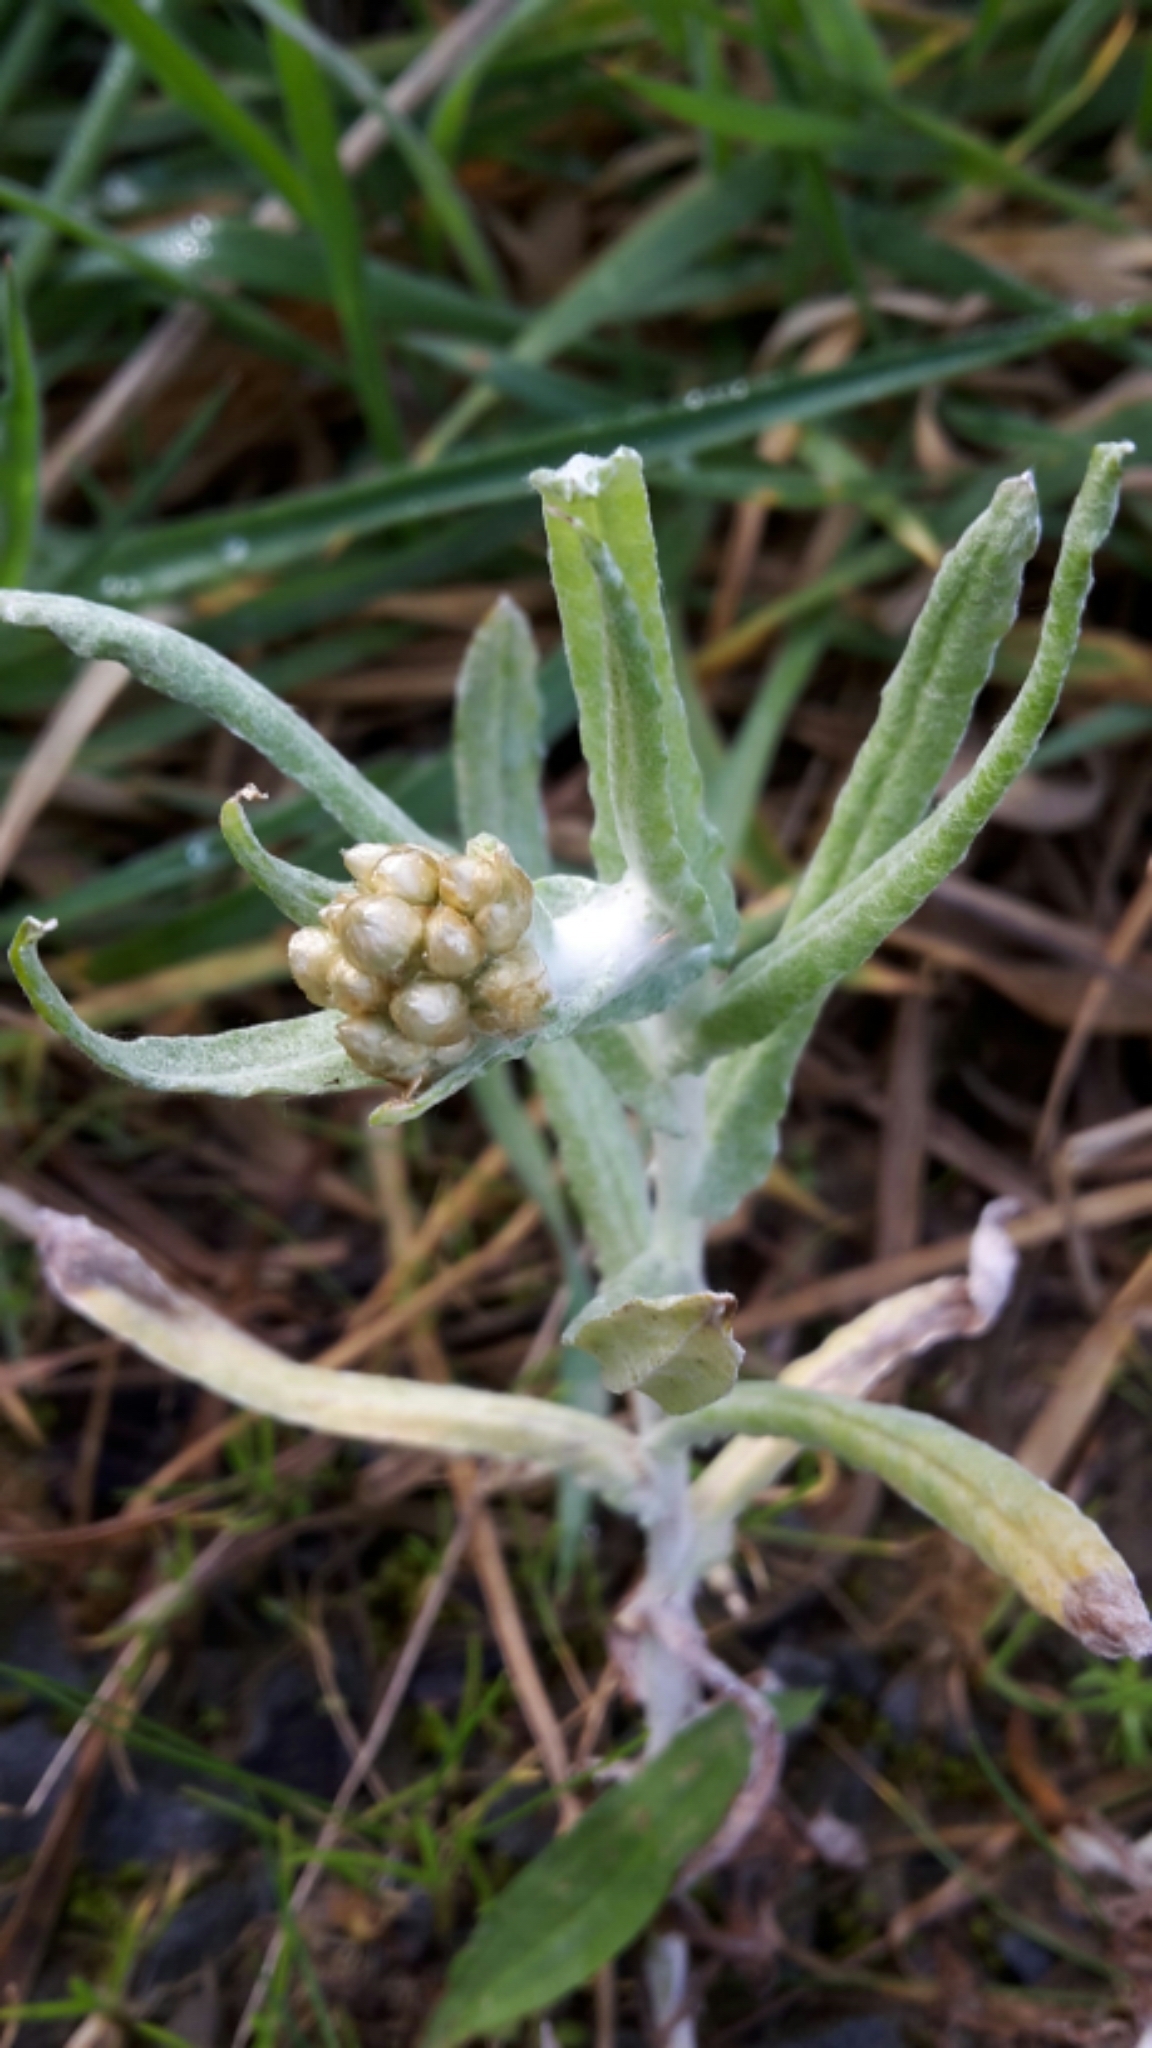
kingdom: Plantae
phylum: Tracheophyta
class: Magnoliopsida
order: Asterales
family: Asteraceae
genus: Helichrysum
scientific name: Helichrysum luteoalbum
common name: Daisy
